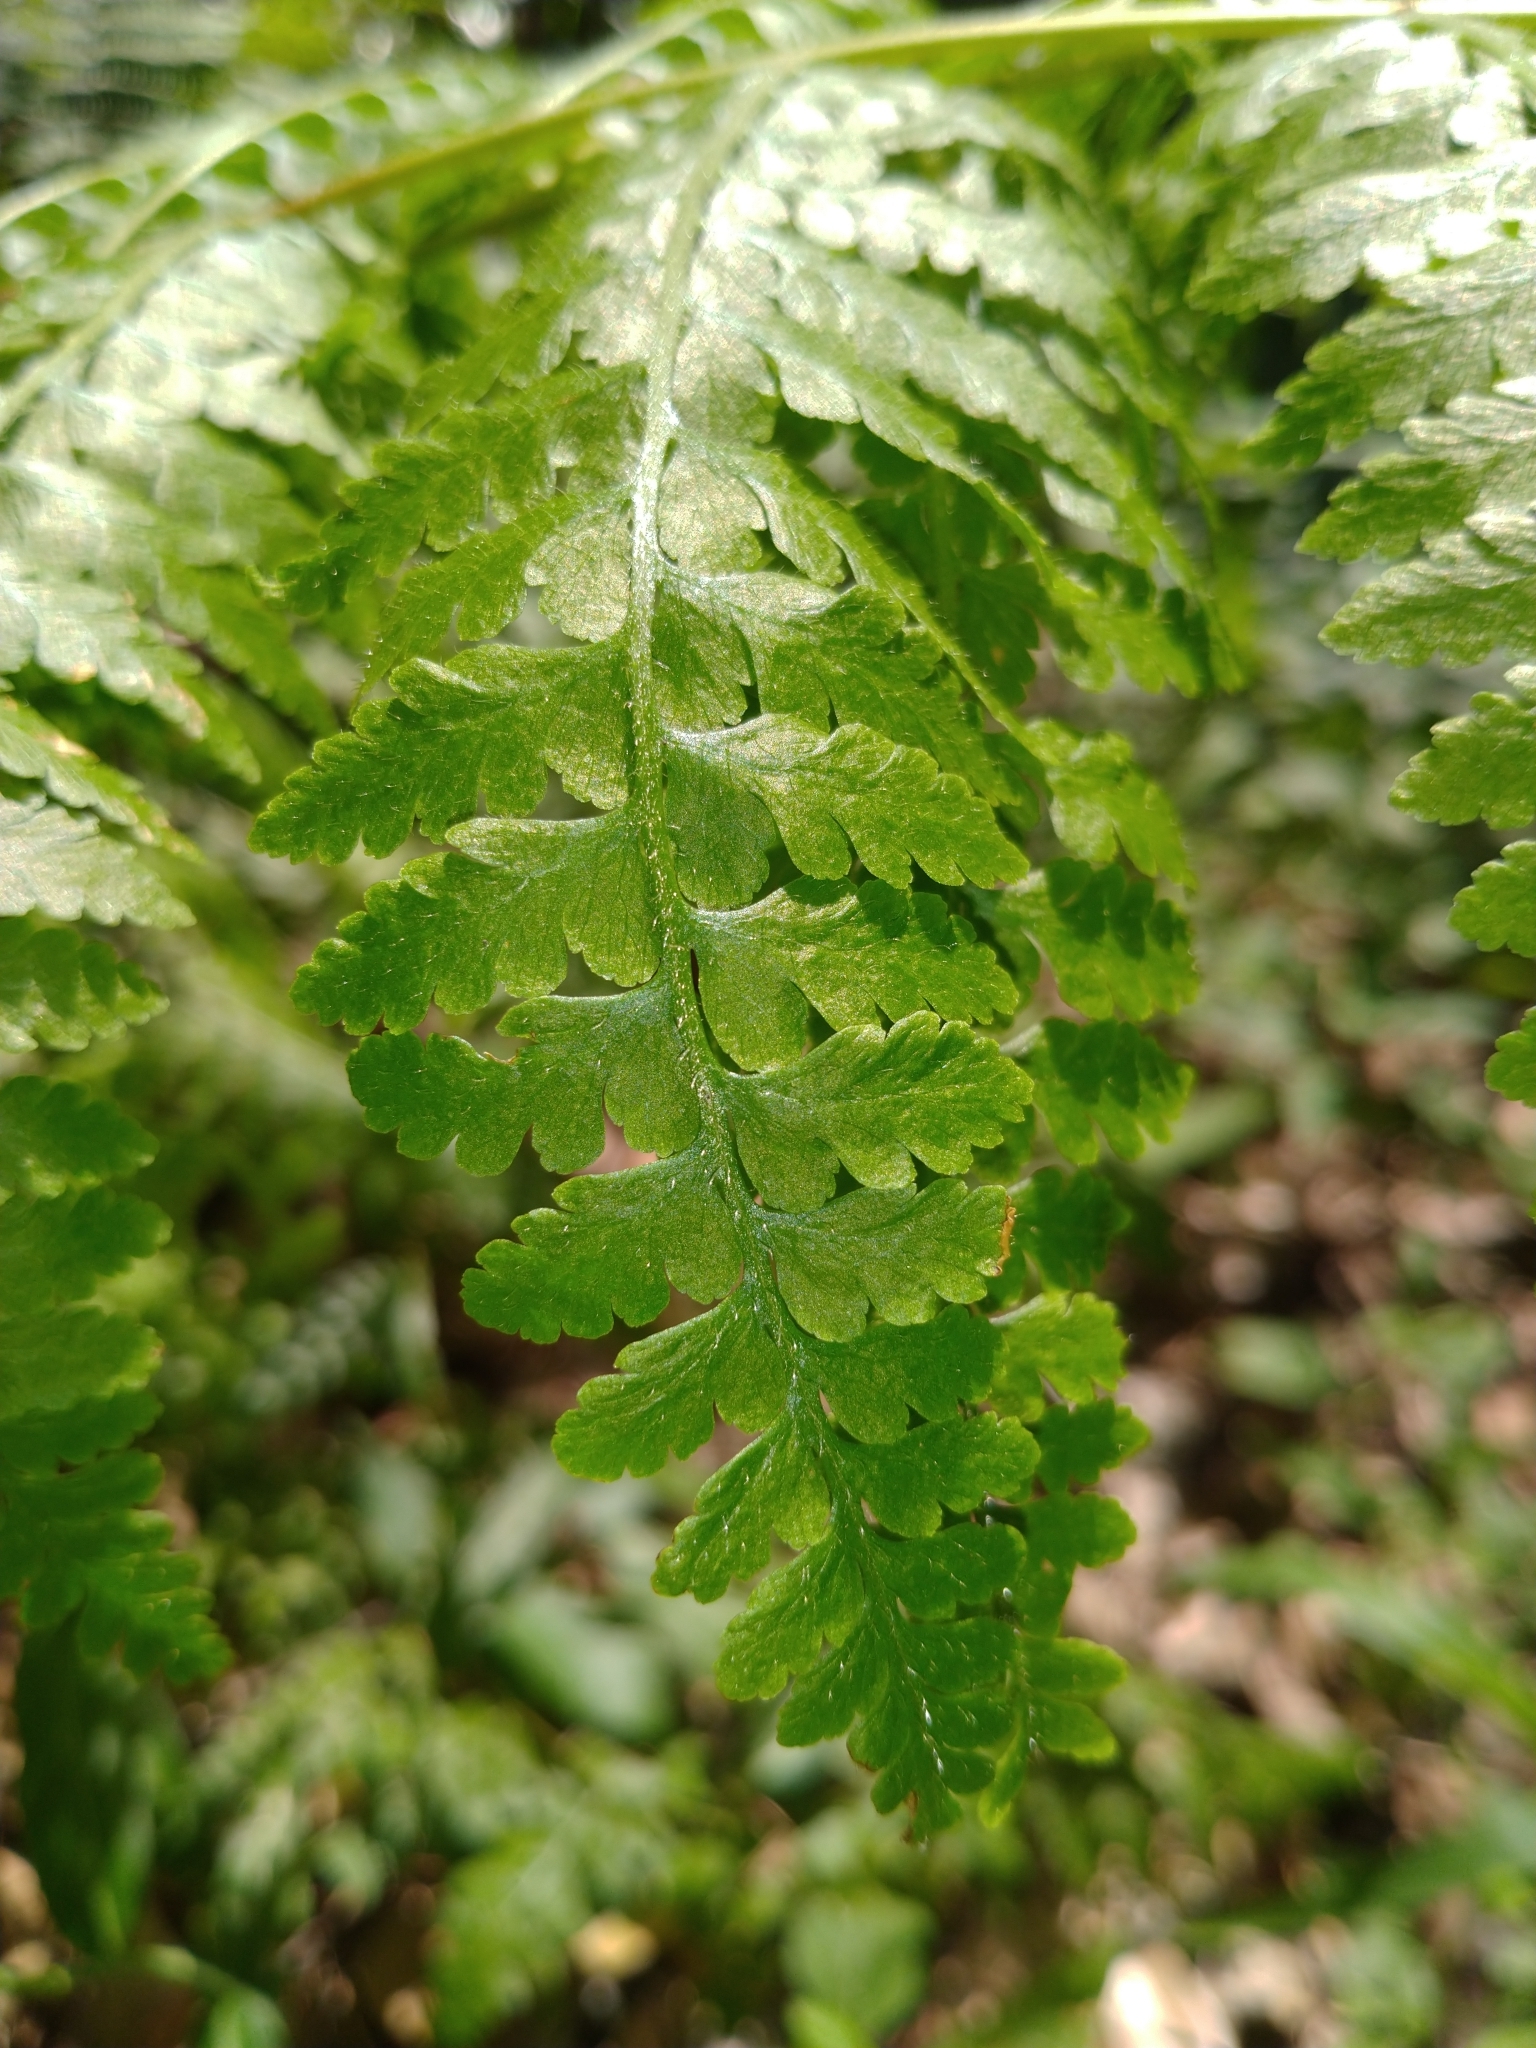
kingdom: Plantae
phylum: Tracheophyta
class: Polypodiopsida
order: Polypodiales
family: Dennstaedtiaceae
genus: Microlepia
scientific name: Microlepia nepalensis
